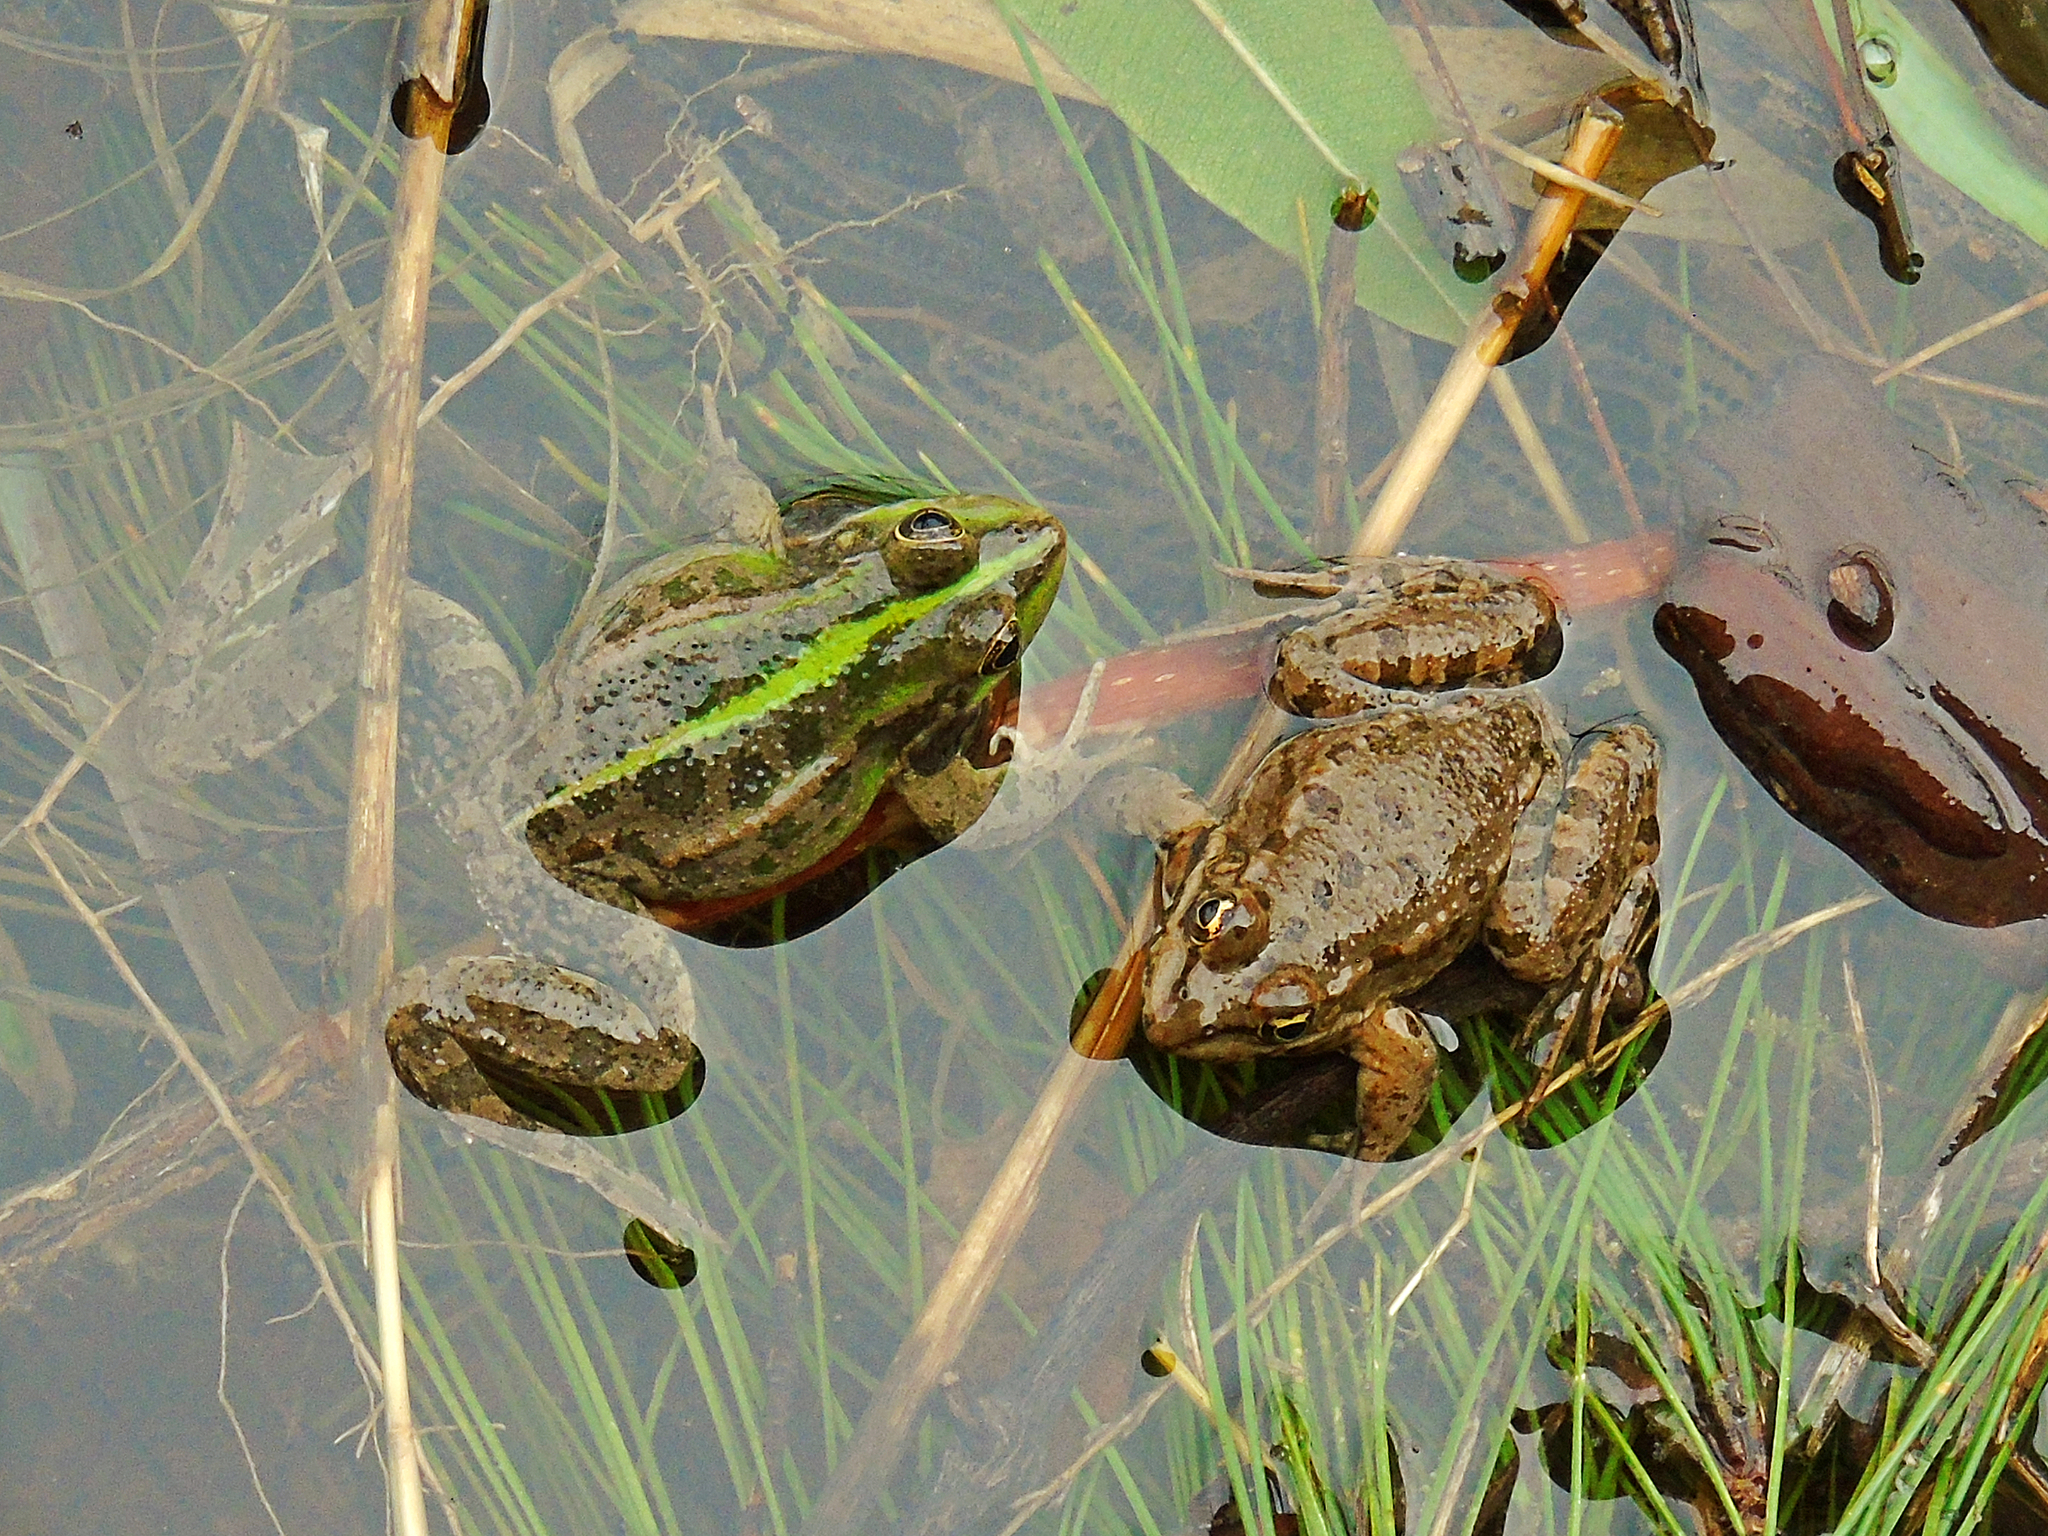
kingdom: Animalia
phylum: Chordata
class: Amphibia
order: Anura
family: Ranidae
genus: Pelophylax
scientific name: Pelophylax ridibundus
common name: Marsh frog
